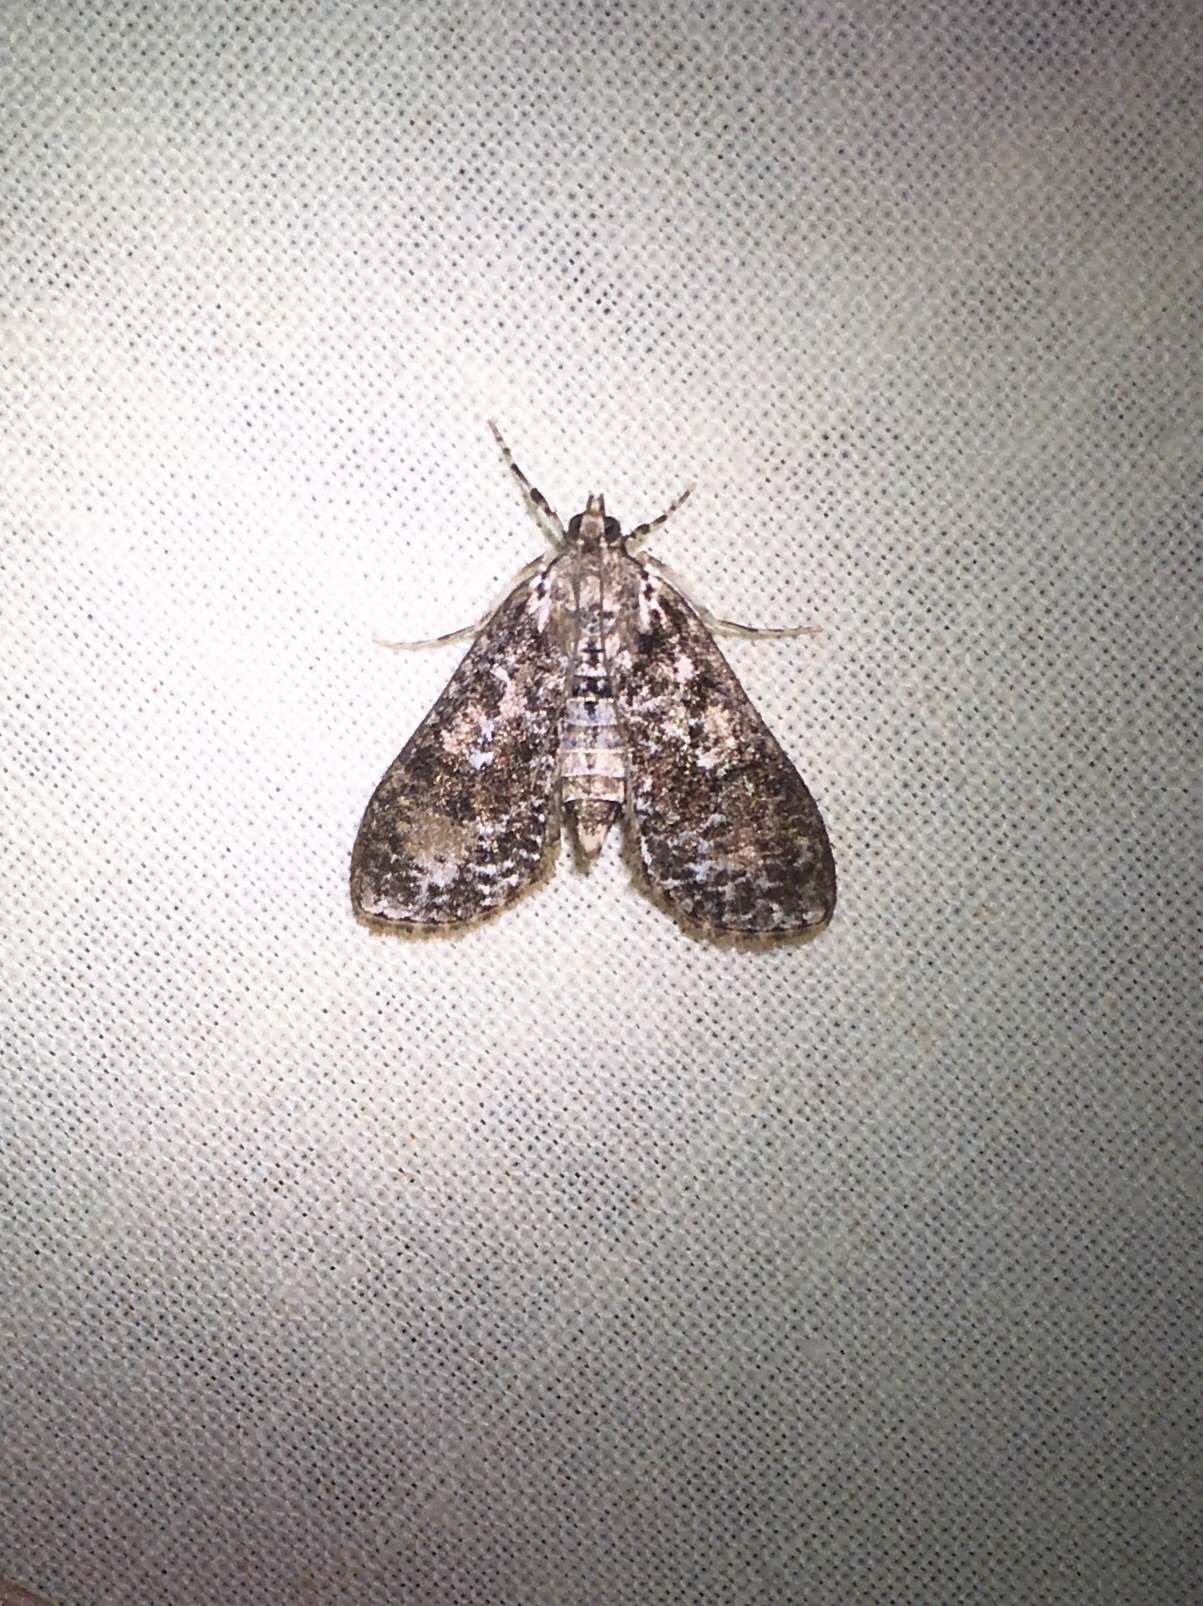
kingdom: Animalia
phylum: Arthropoda
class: Insecta
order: Lepidoptera
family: Crambidae
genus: Palpita
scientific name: Palpita magniferalis
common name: Splendid palpita moth
